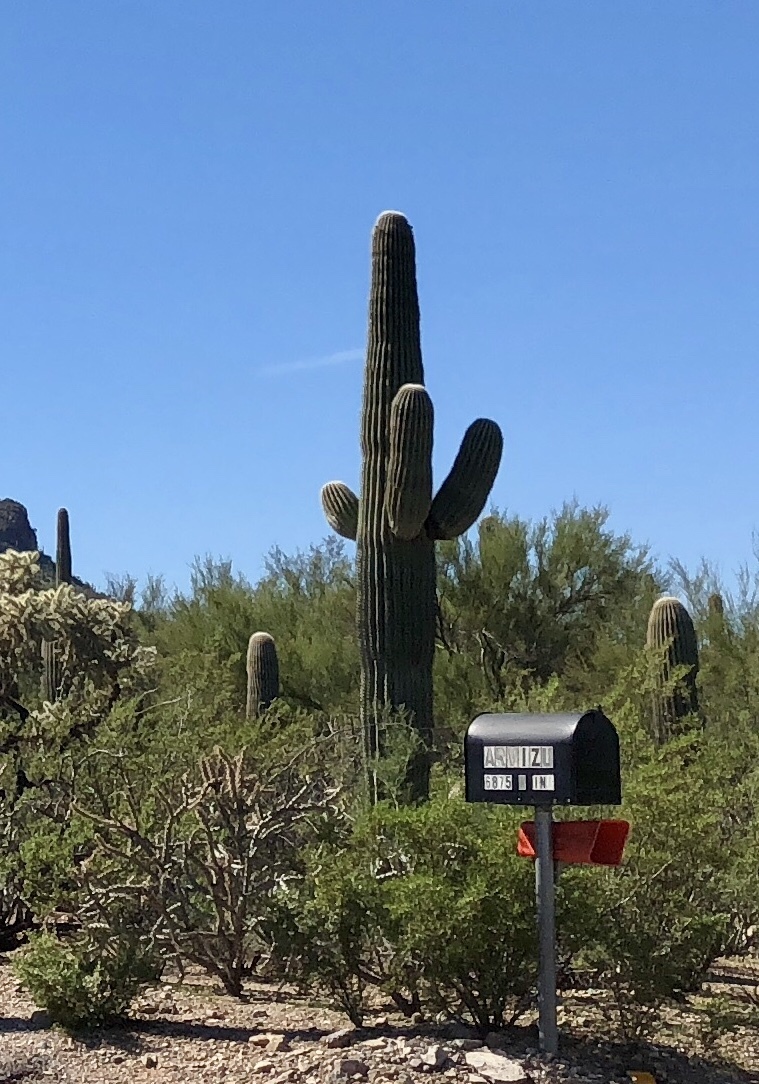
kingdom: Plantae
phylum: Tracheophyta
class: Magnoliopsida
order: Caryophyllales
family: Cactaceae
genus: Carnegiea
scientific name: Carnegiea gigantea
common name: Saguaro
